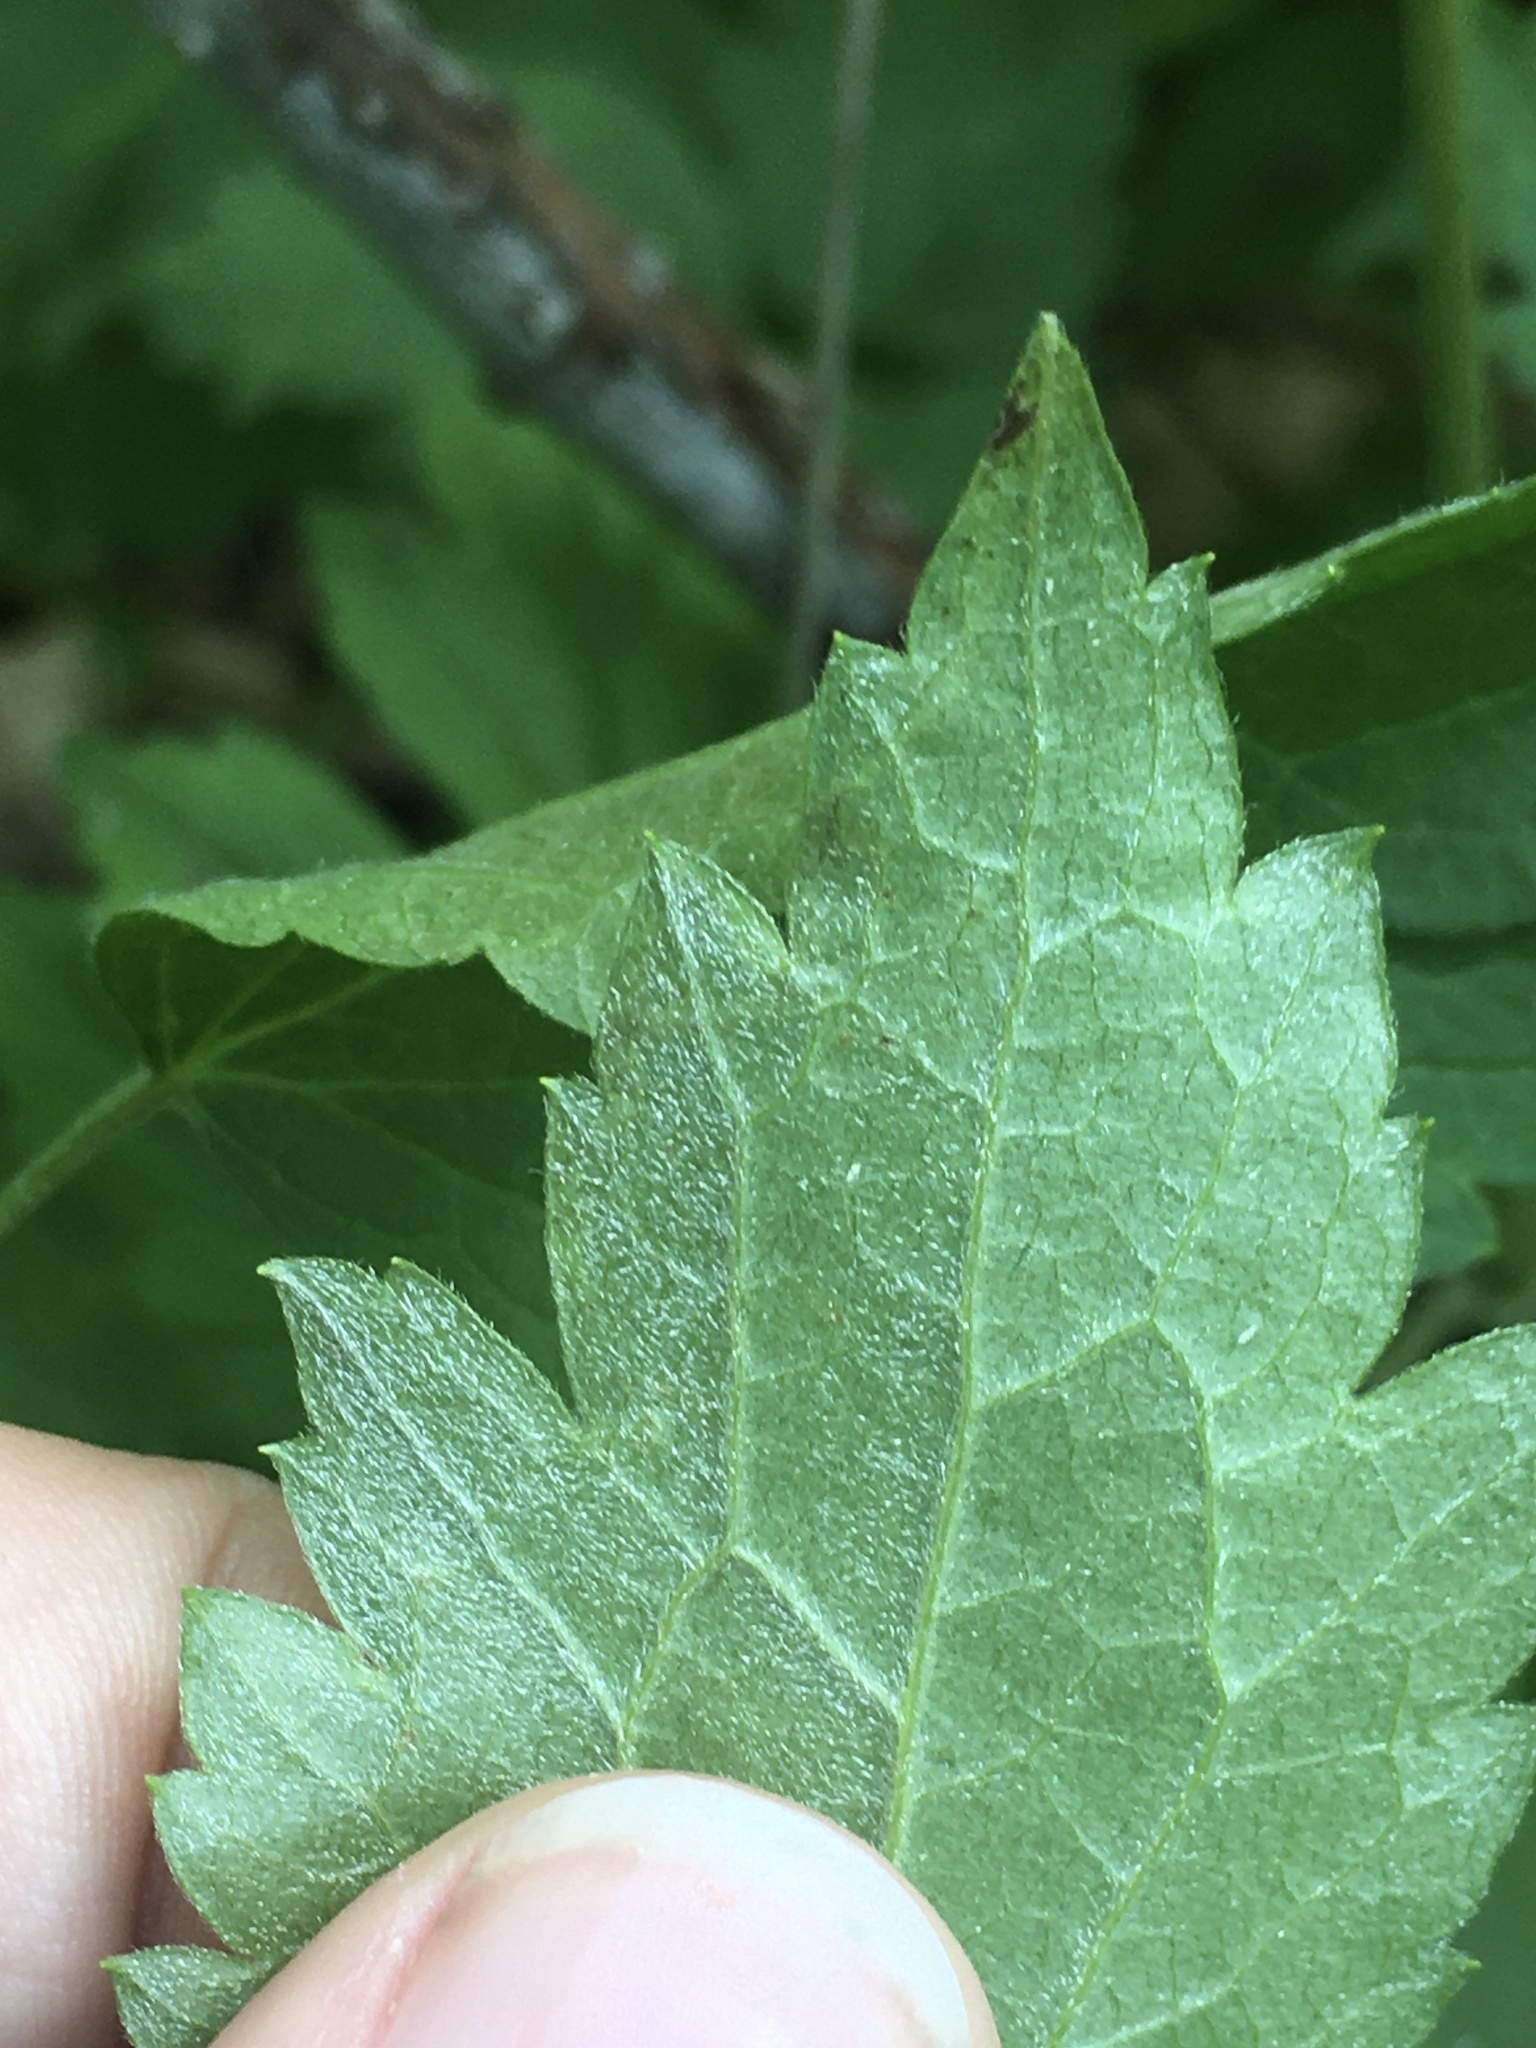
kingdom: Animalia
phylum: Arthropoda
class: Insecta
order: Diptera
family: Agromyzidae
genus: Phytomyza
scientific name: Phytomyza loewii
